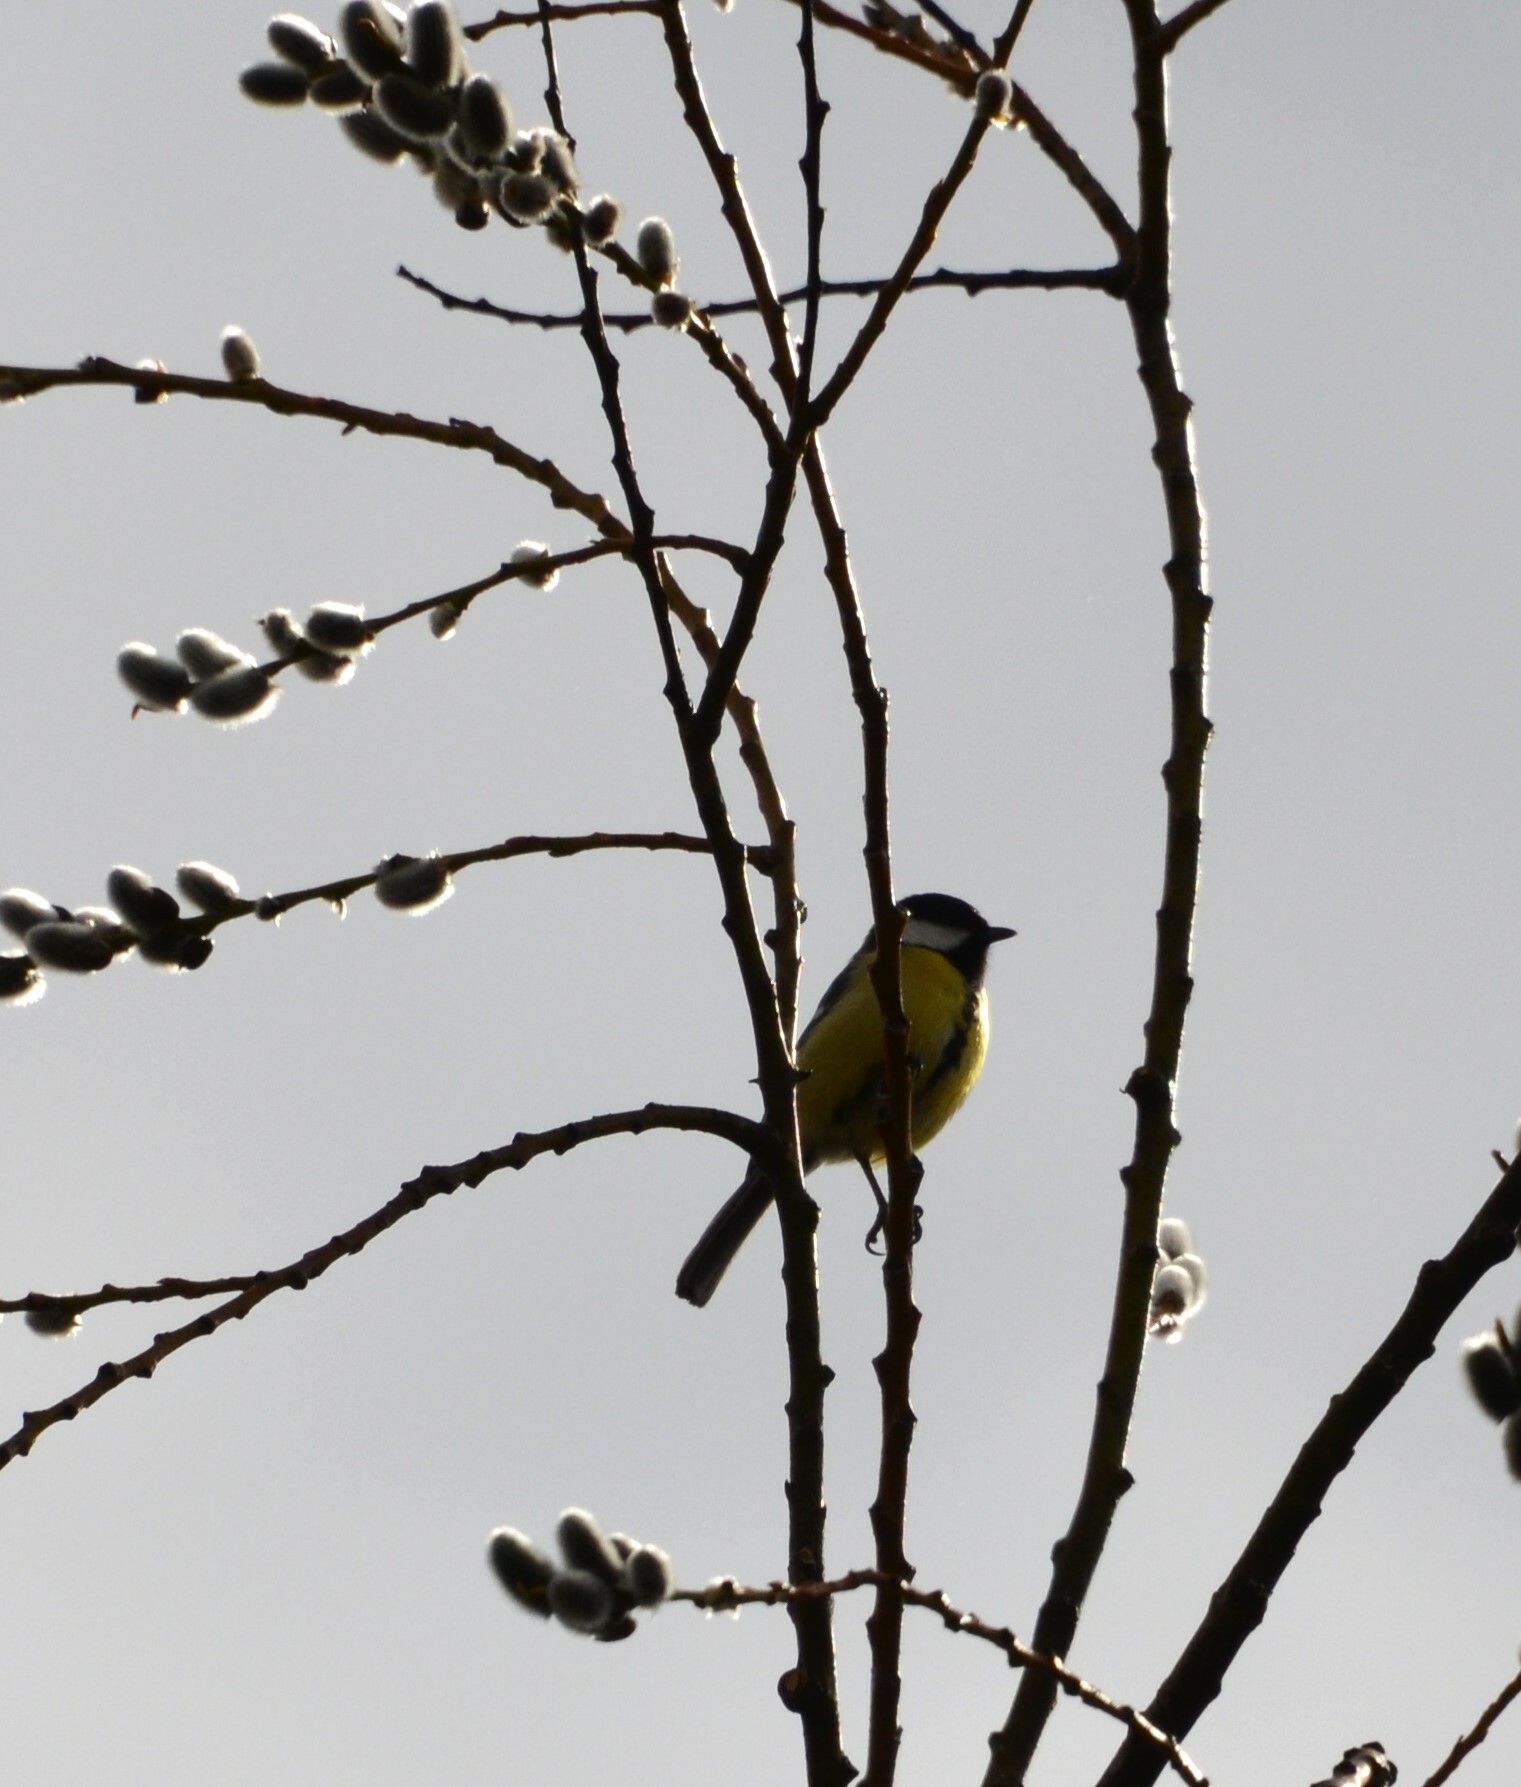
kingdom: Animalia
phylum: Chordata
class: Aves
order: Passeriformes
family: Paridae
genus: Parus
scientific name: Parus major
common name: Great tit
